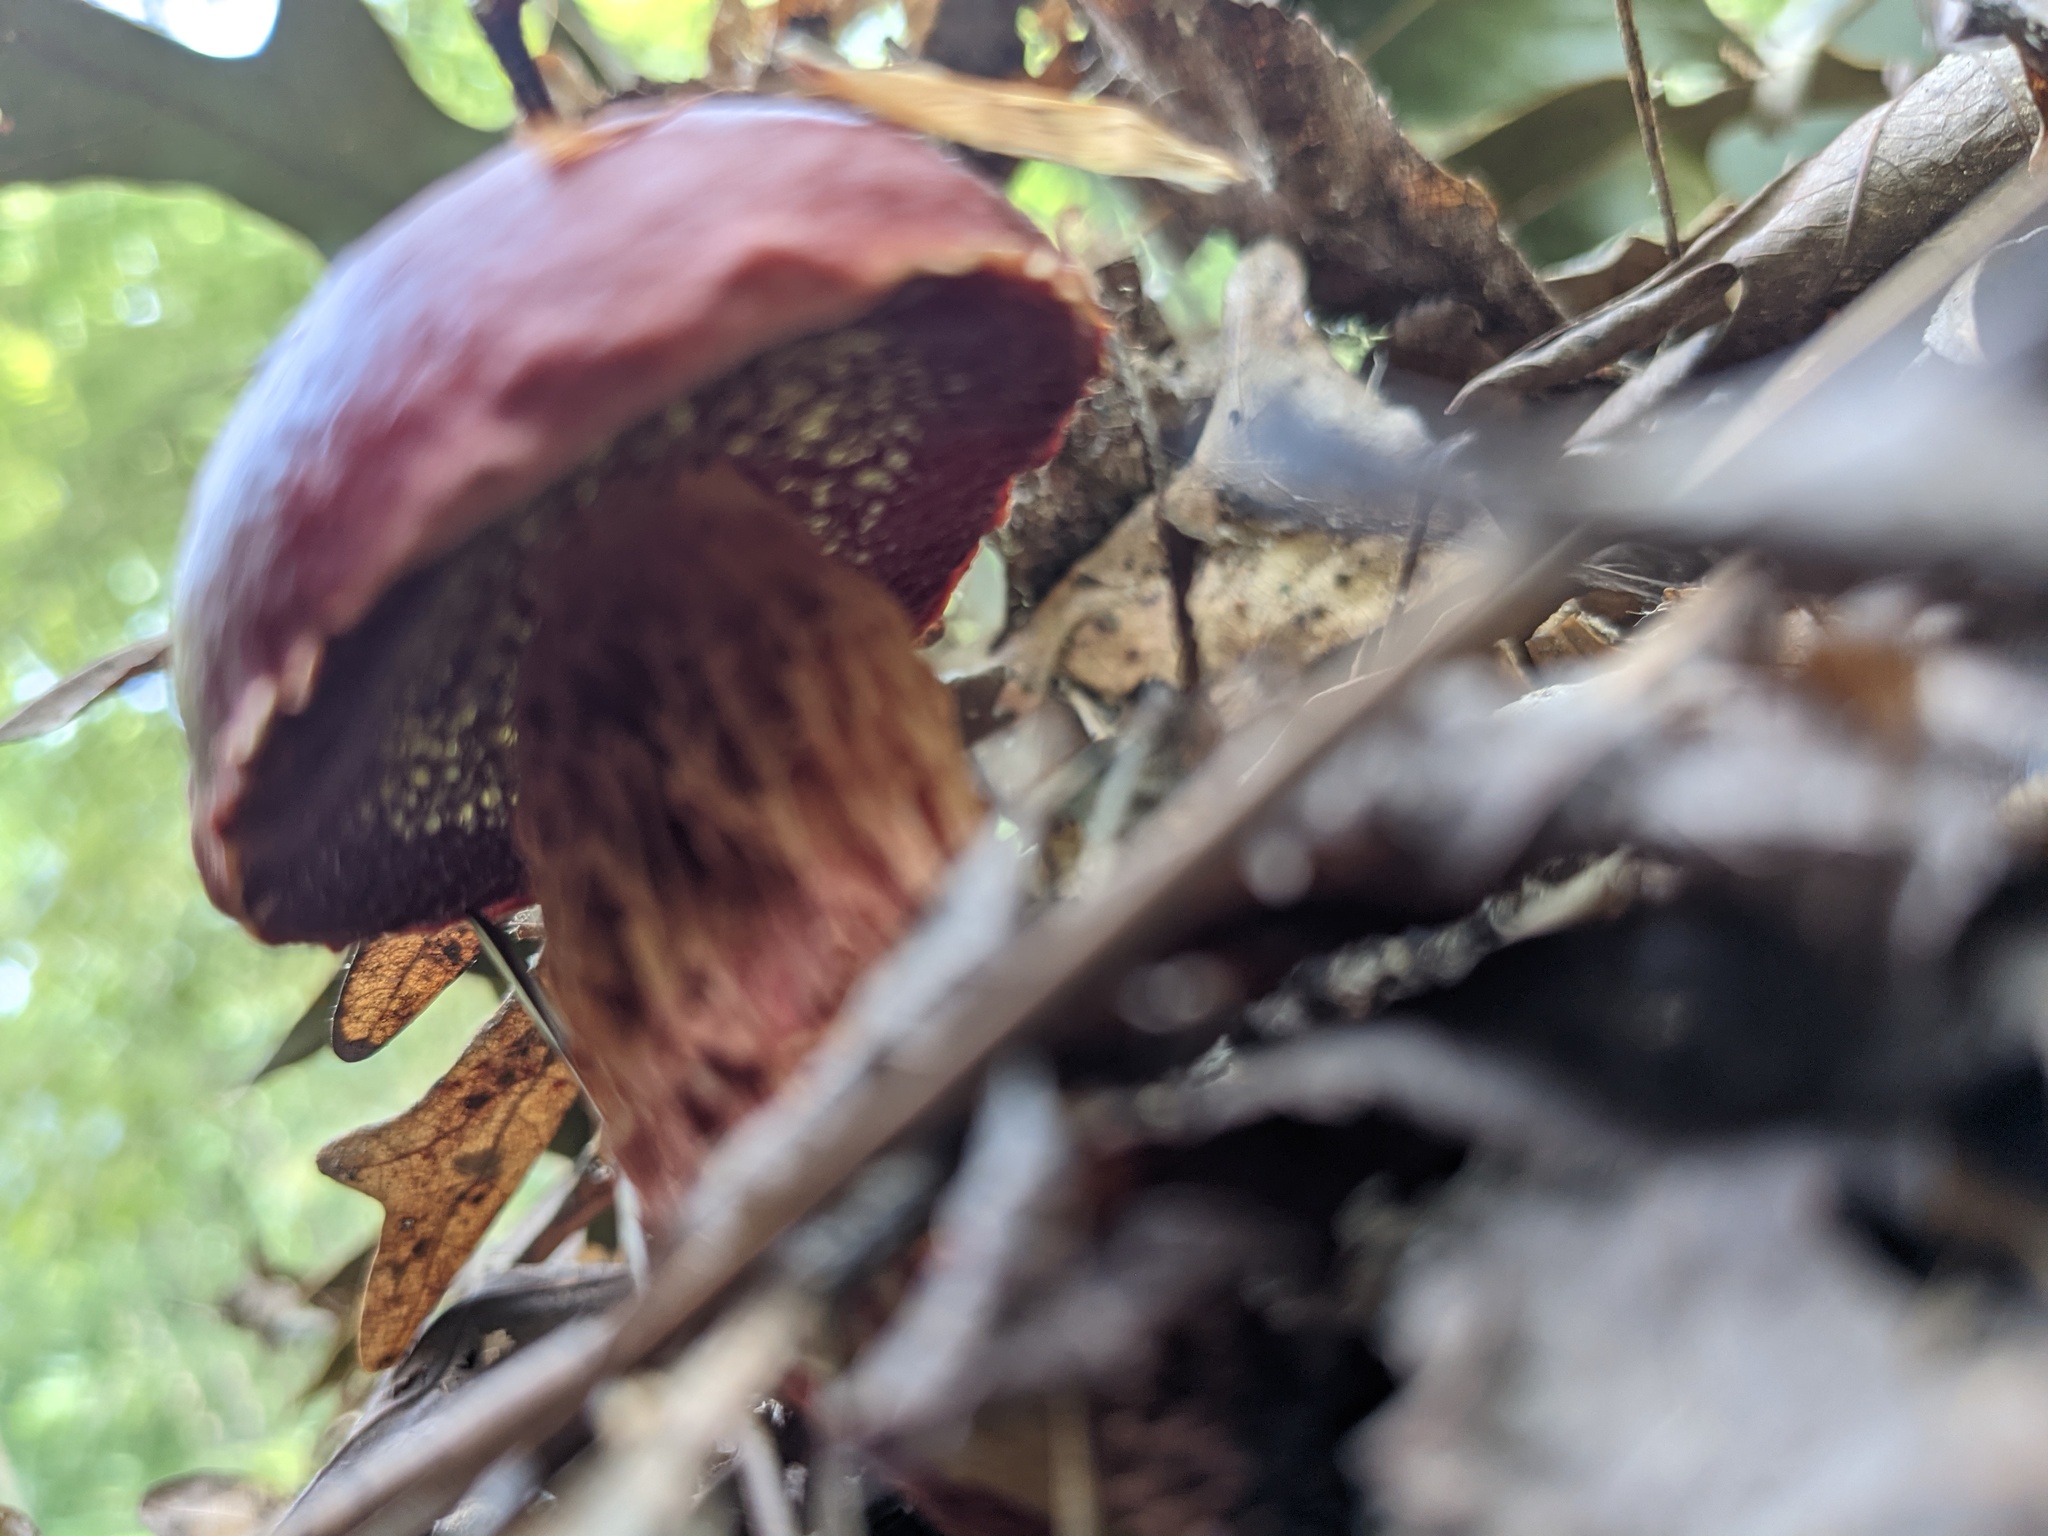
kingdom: Fungi
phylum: Basidiomycota
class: Agaricomycetes
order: Boletales
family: Boletaceae
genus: Butyriboletus
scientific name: Butyriboletus frostii
